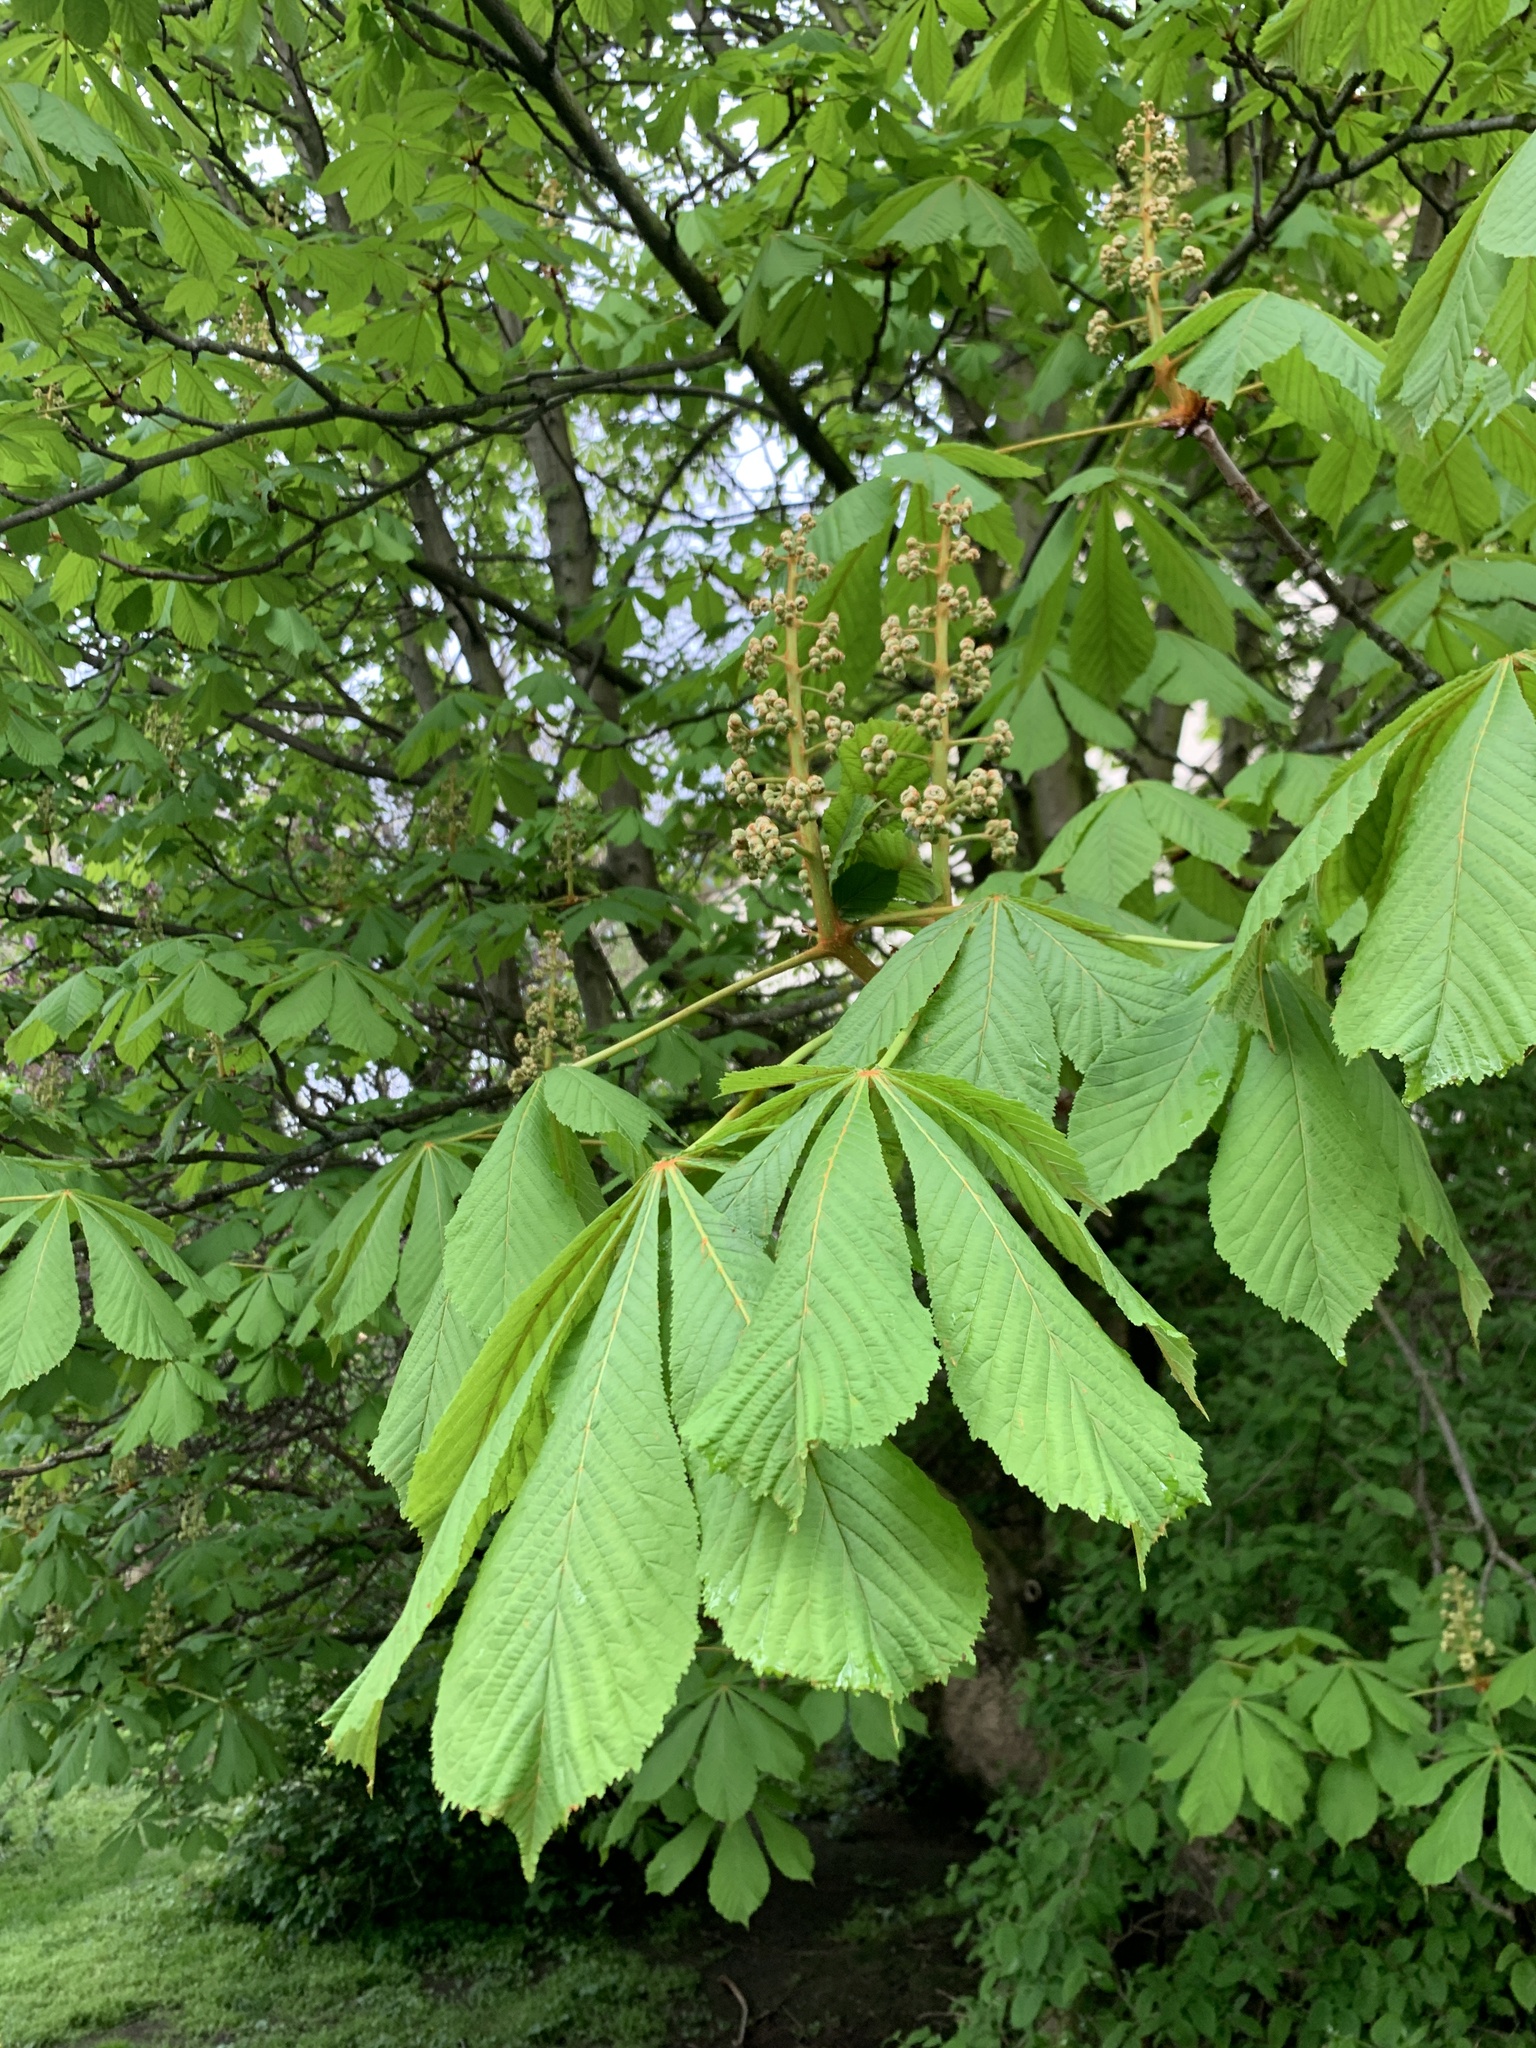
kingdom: Plantae
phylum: Tracheophyta
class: Magnoliopsida
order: Sapindales
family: Sapindaceae
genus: Aesculus
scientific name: Aesculus hippocastanum
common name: Horse-chestnut
